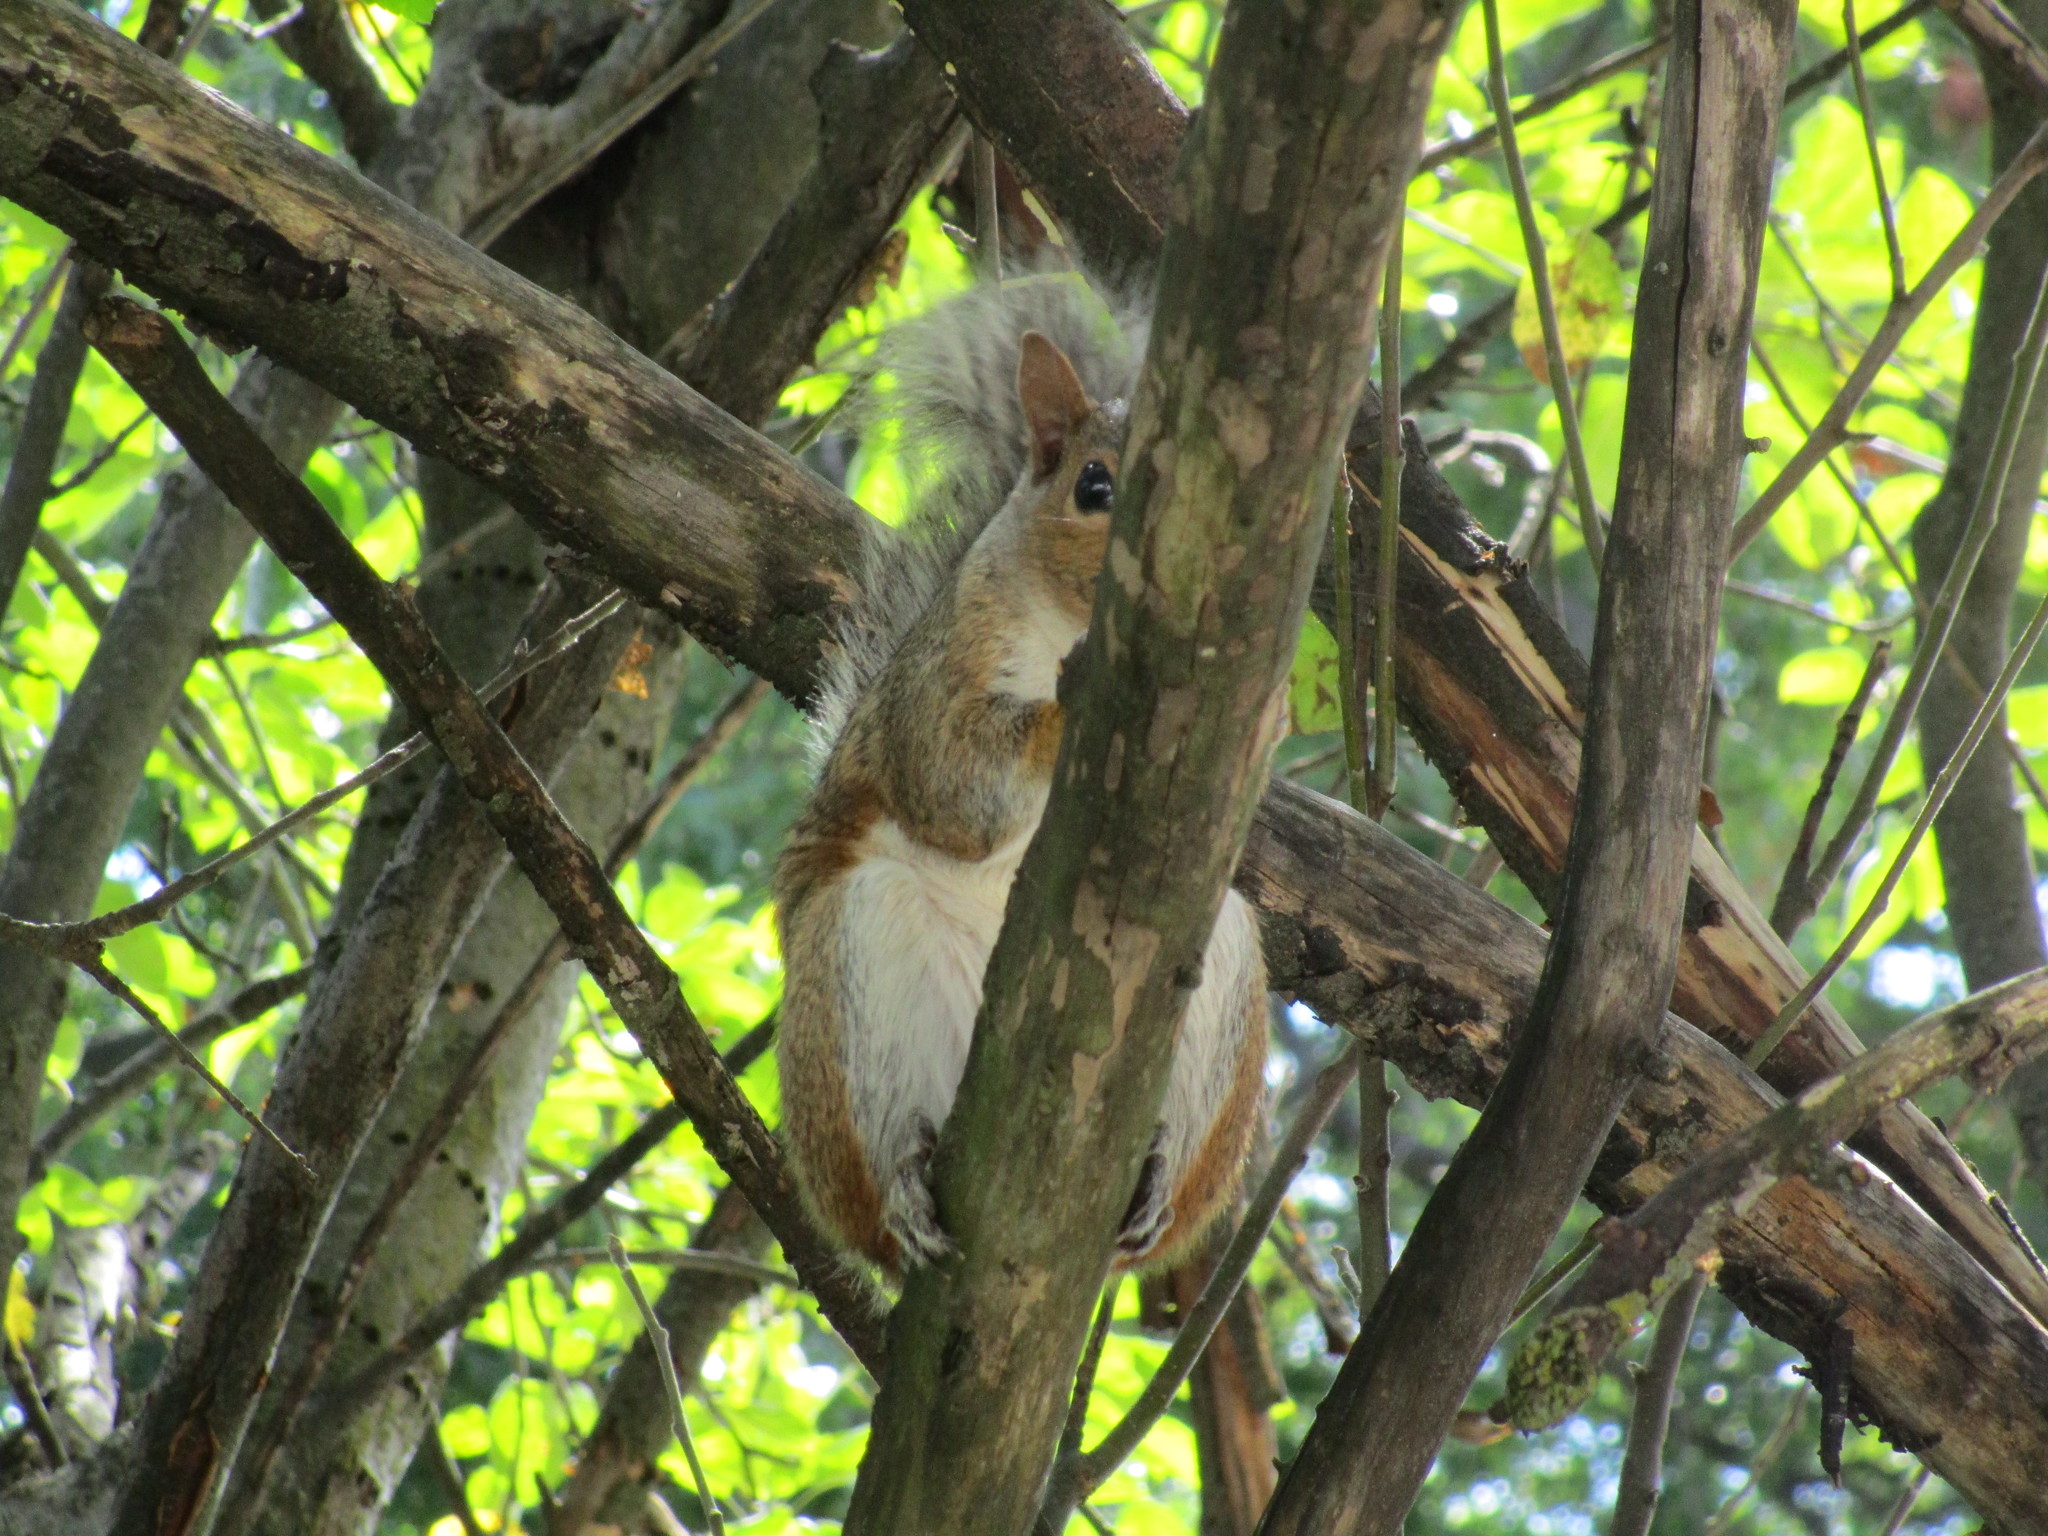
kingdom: Animalia
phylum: Chordata
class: Mammalia
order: Rodentia
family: Sciuridae
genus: Sciurus
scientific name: Sciurus carolinensis
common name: Eastern gray squirrel
